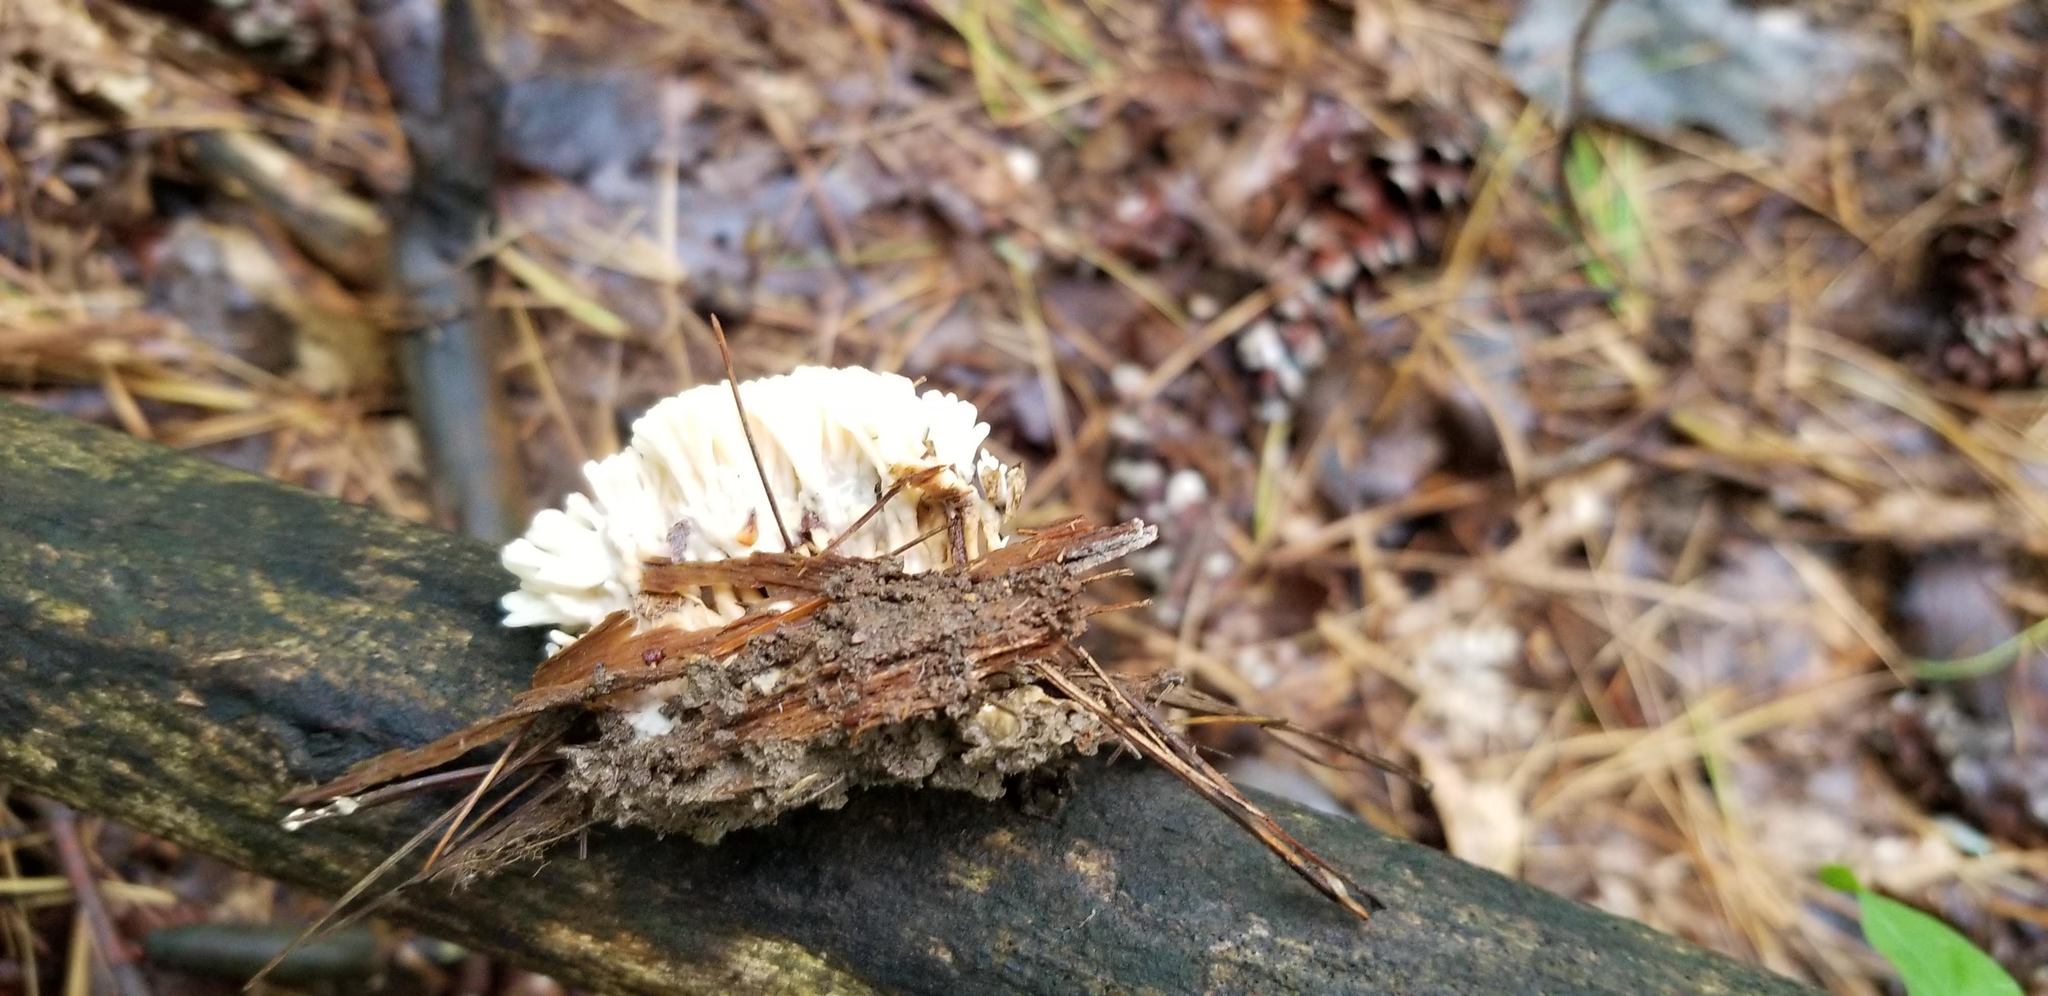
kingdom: Fungi
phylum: Basidiomycota
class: Agaricomycetes
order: Sebacinales
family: Sebacinaceae
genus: Sebacina
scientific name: Sebacina schweinitzii
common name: Jellied false coral fungus
